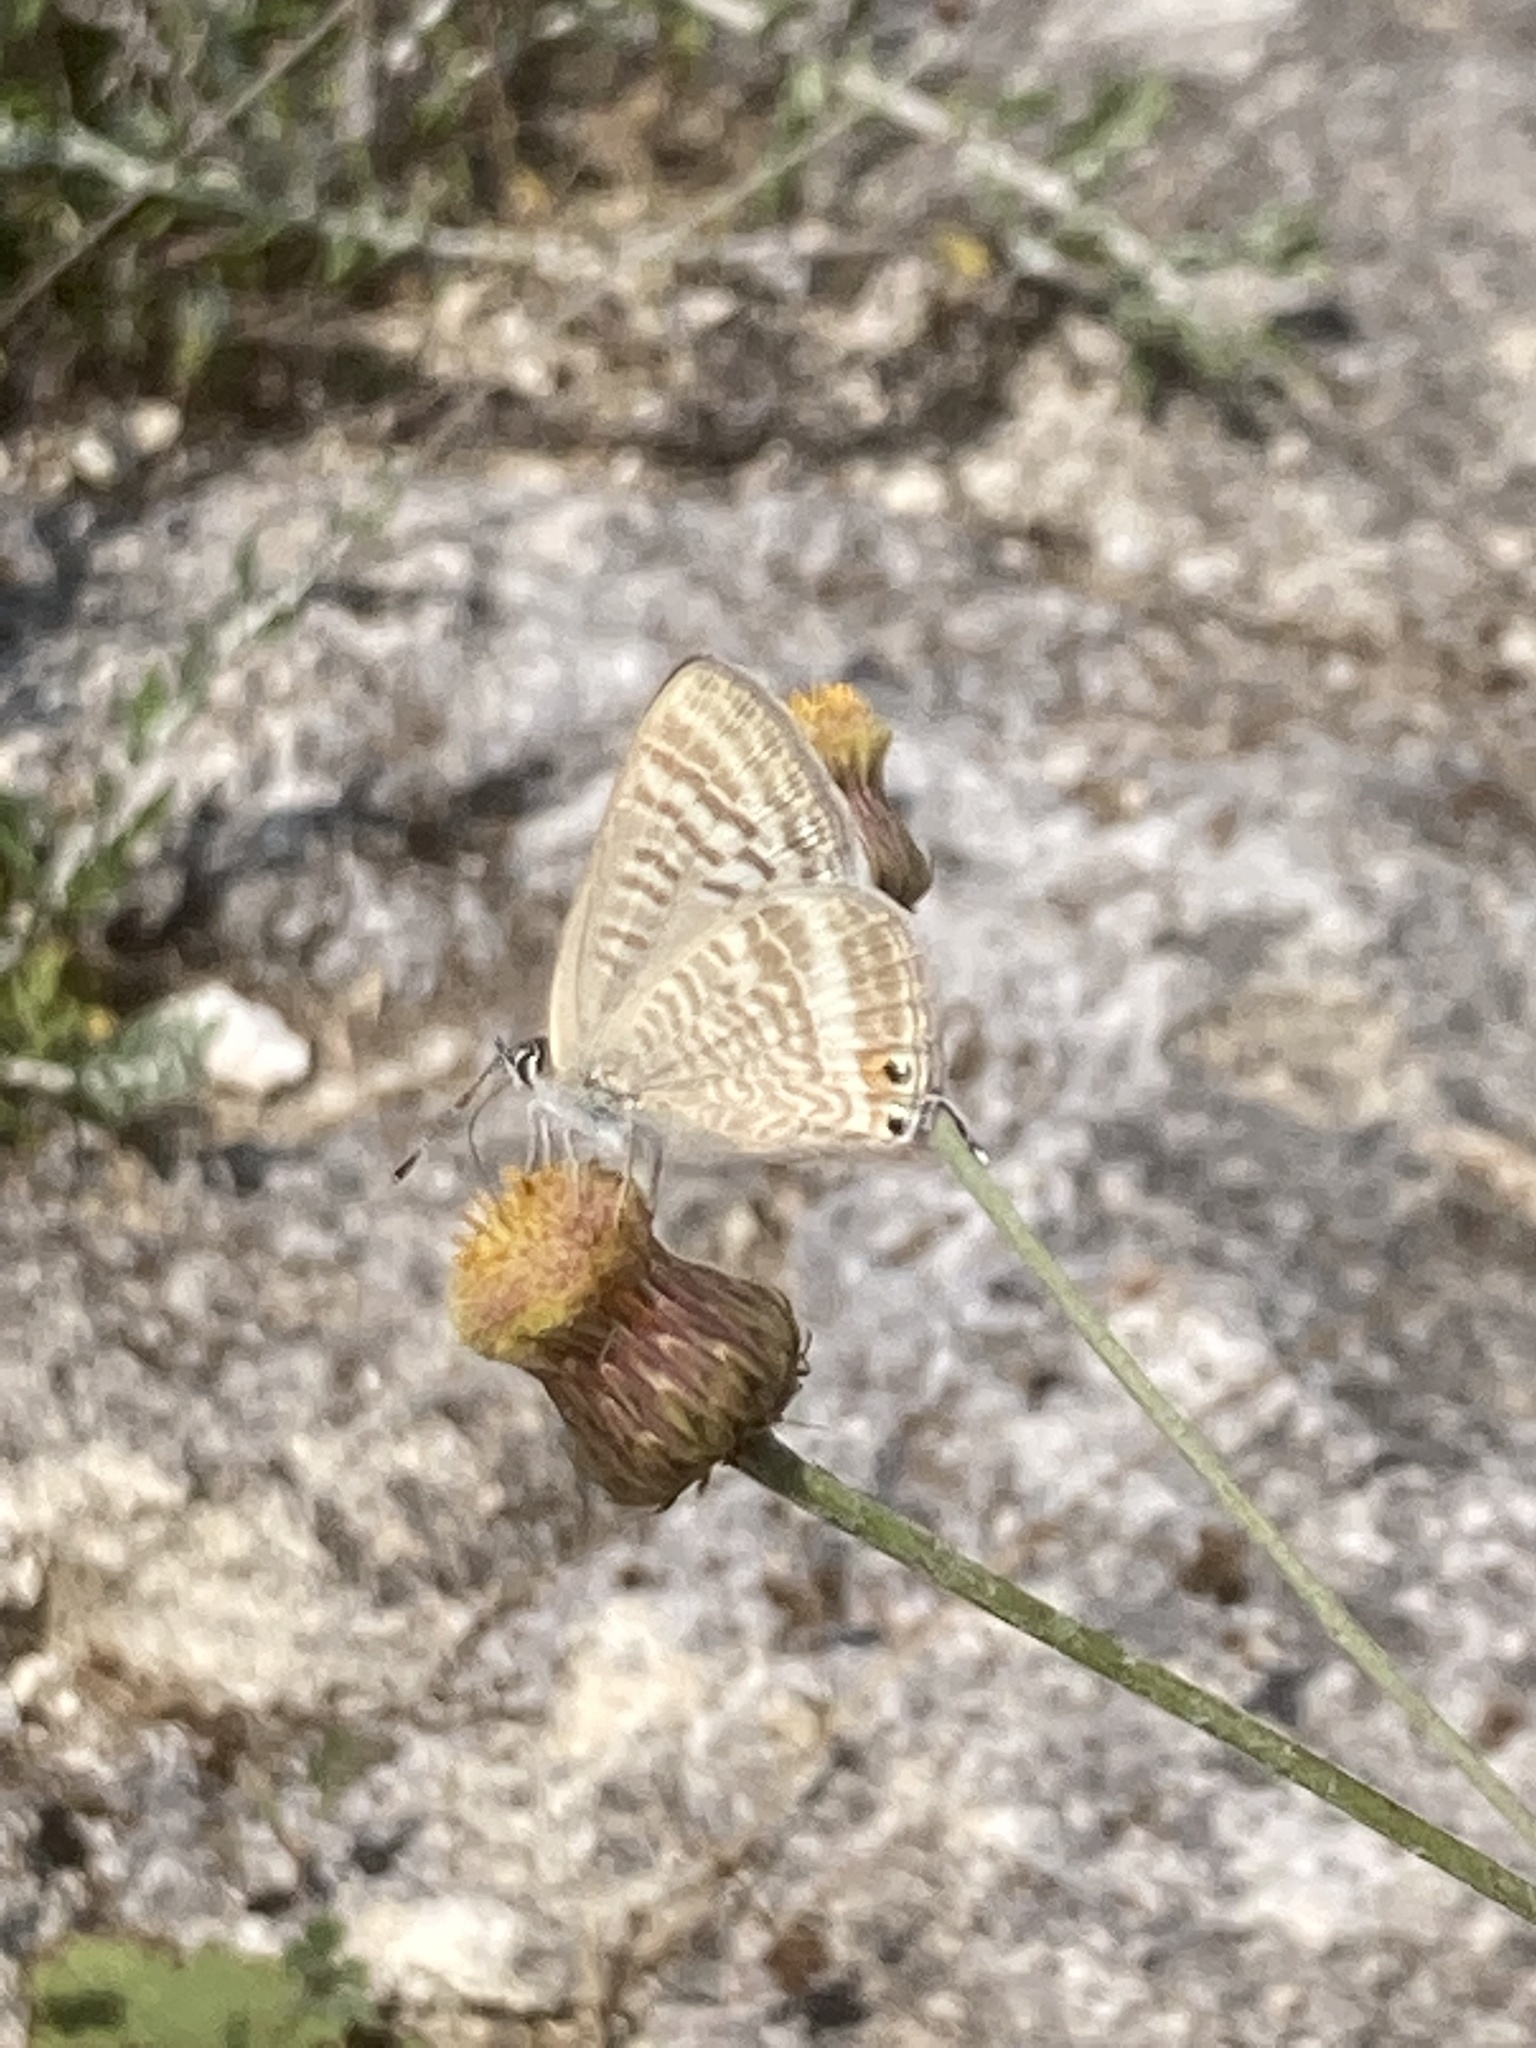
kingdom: Animalia
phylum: Arthropoda
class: Insecta
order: Lepidoptera
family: Lycaenidae
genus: Lampides
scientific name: Lampides boeticus
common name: Long-tailed blue
